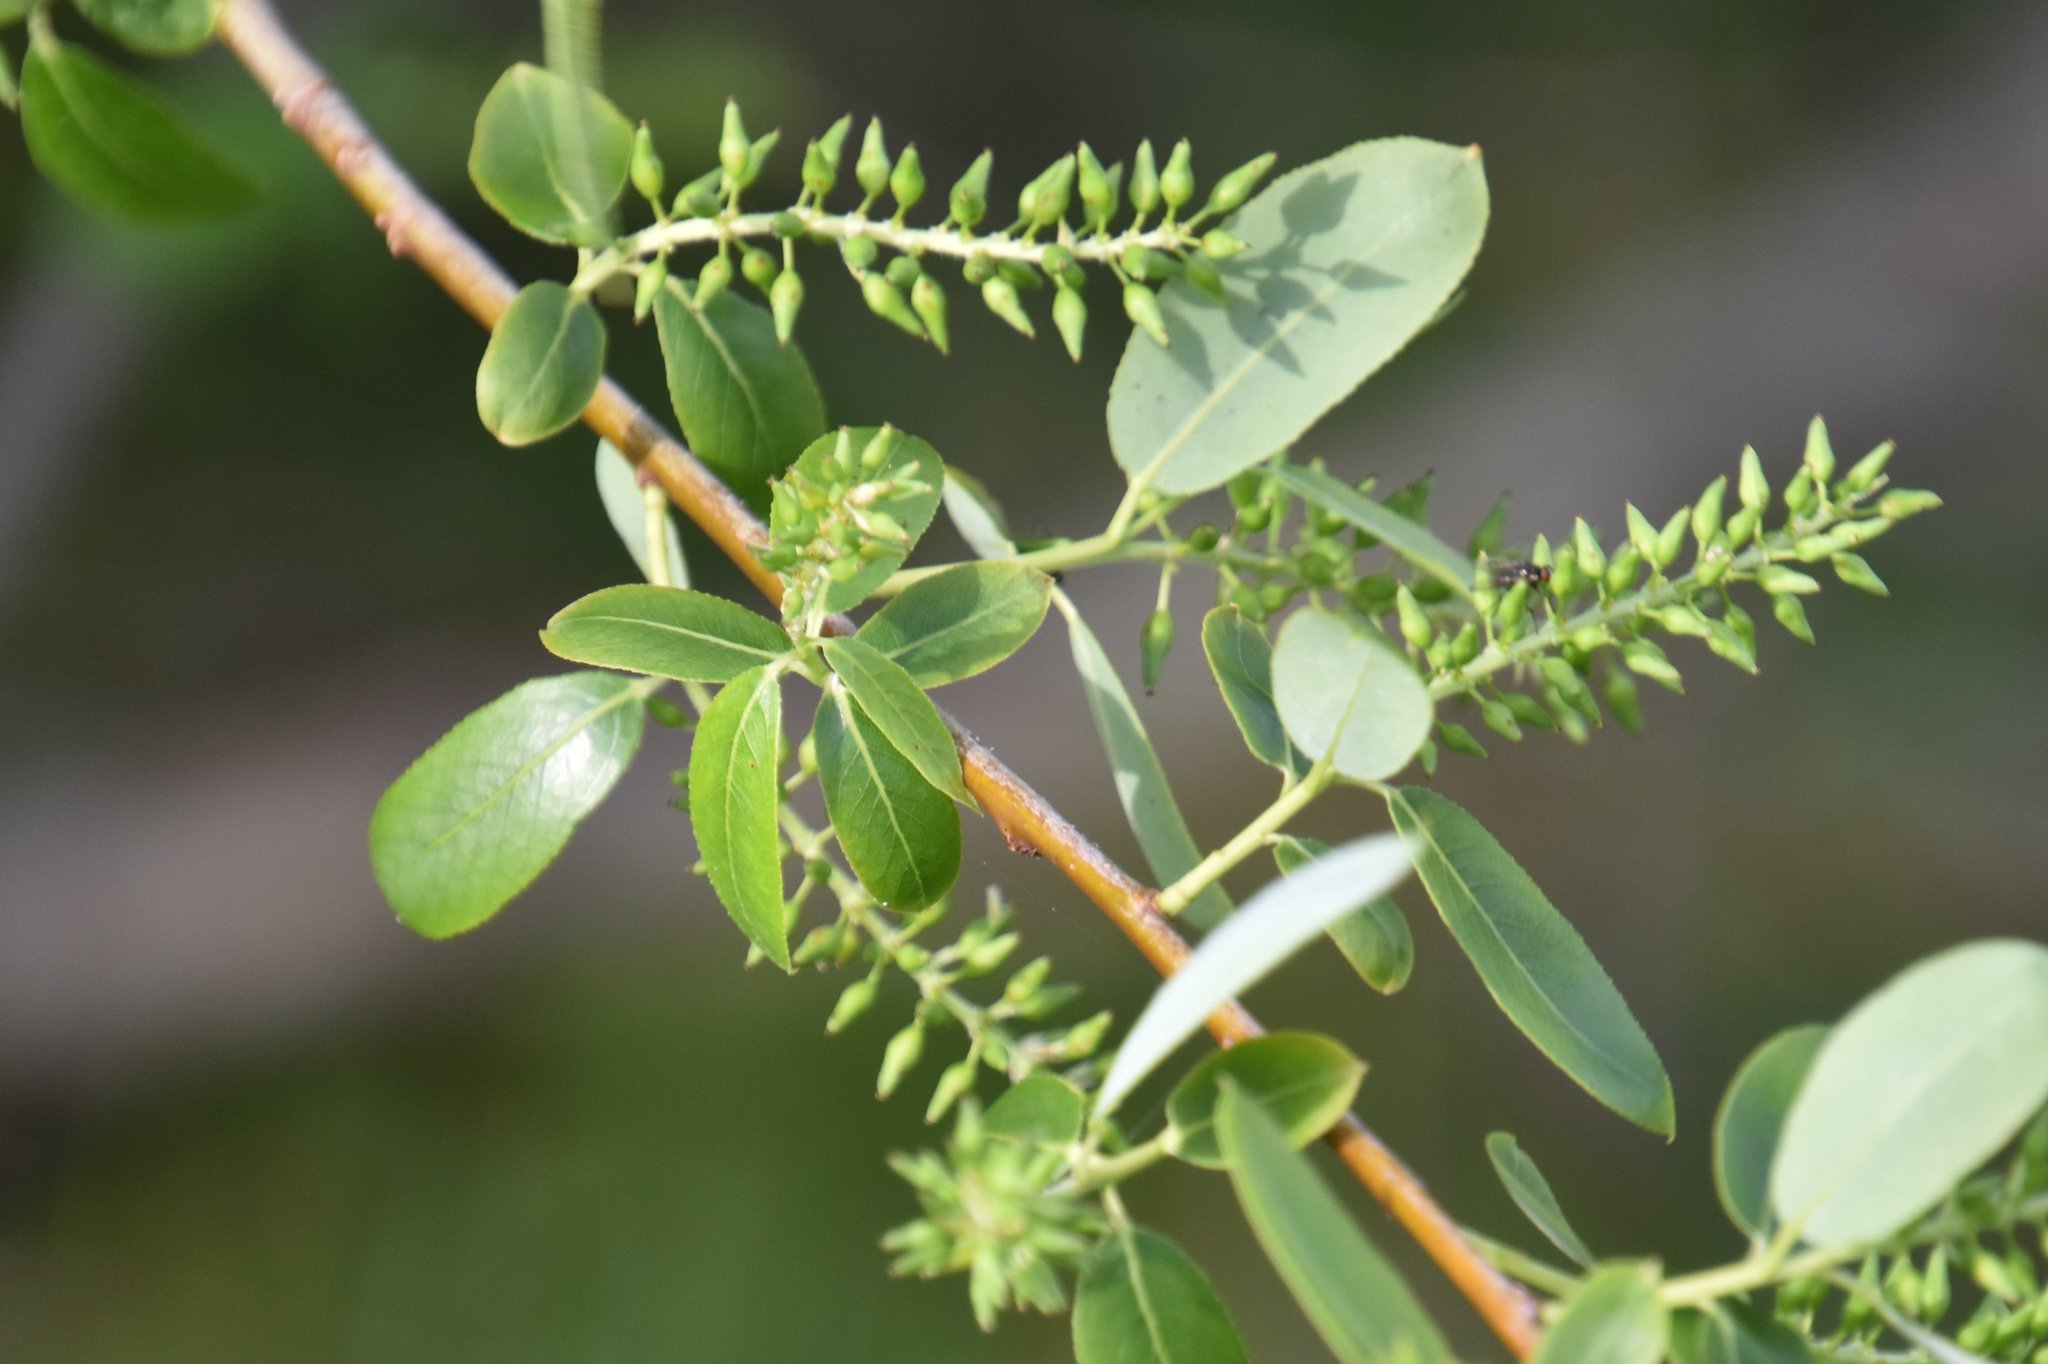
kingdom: Plantae
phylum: Tracheophyta
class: Magnoliopsida
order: Malpighiales
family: Salicaceae
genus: Salix
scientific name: Salix caroliniana
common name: Carolina willow
